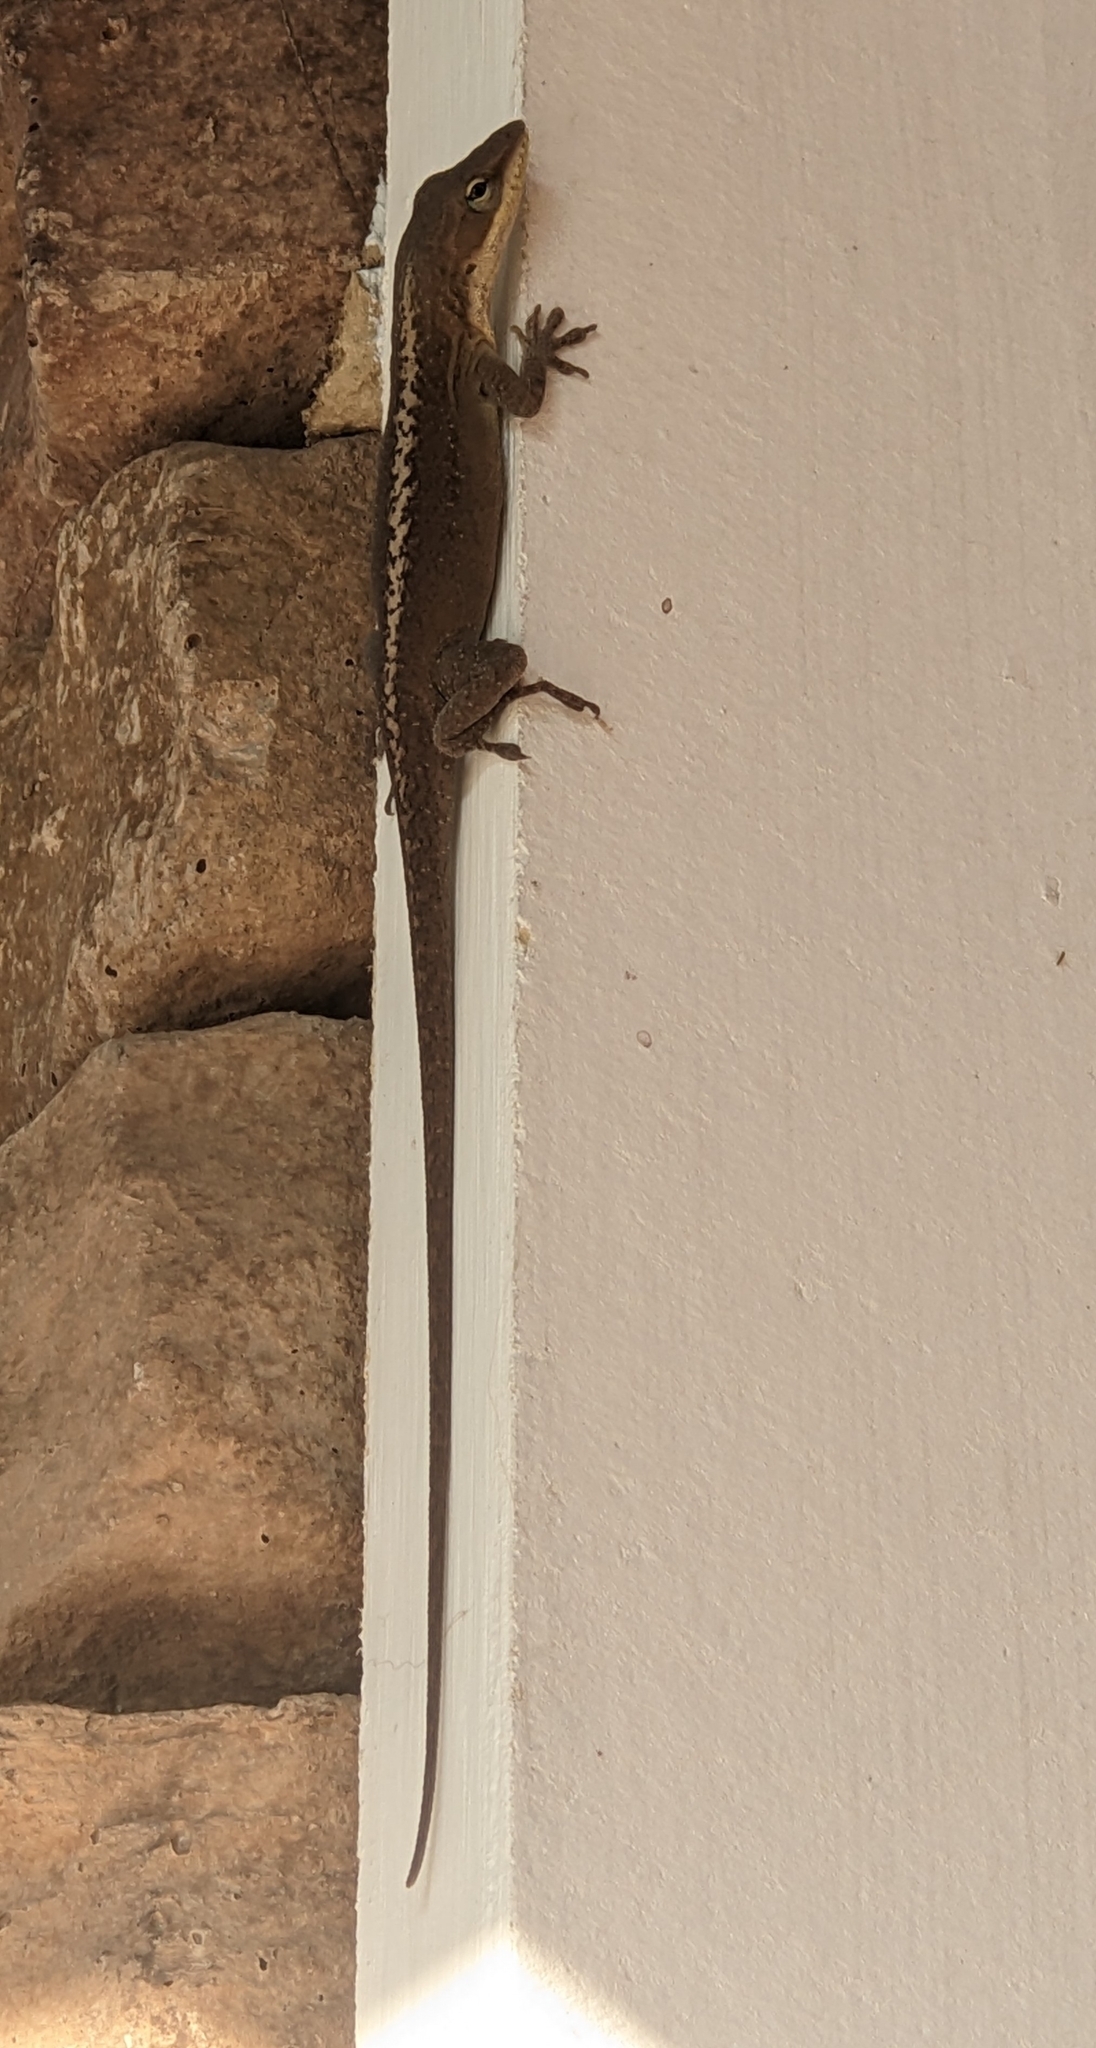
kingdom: Animalia
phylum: Chordata
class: Squamata
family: Dactyloidae
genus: Anolis
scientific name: Anolis carolinensis
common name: Green anole
